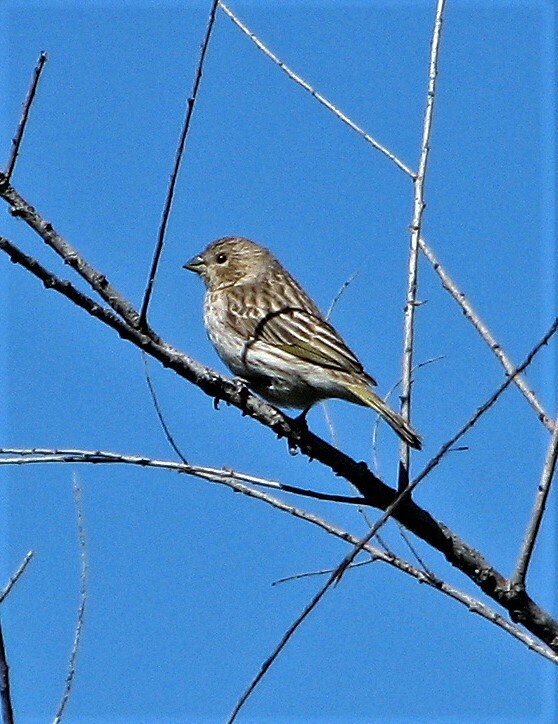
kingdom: Animalia
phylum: Chordata
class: Aves
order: Passeriformes
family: Thraupidae
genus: Sicalis
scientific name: Sicalis flaveola
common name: Saffron finch
